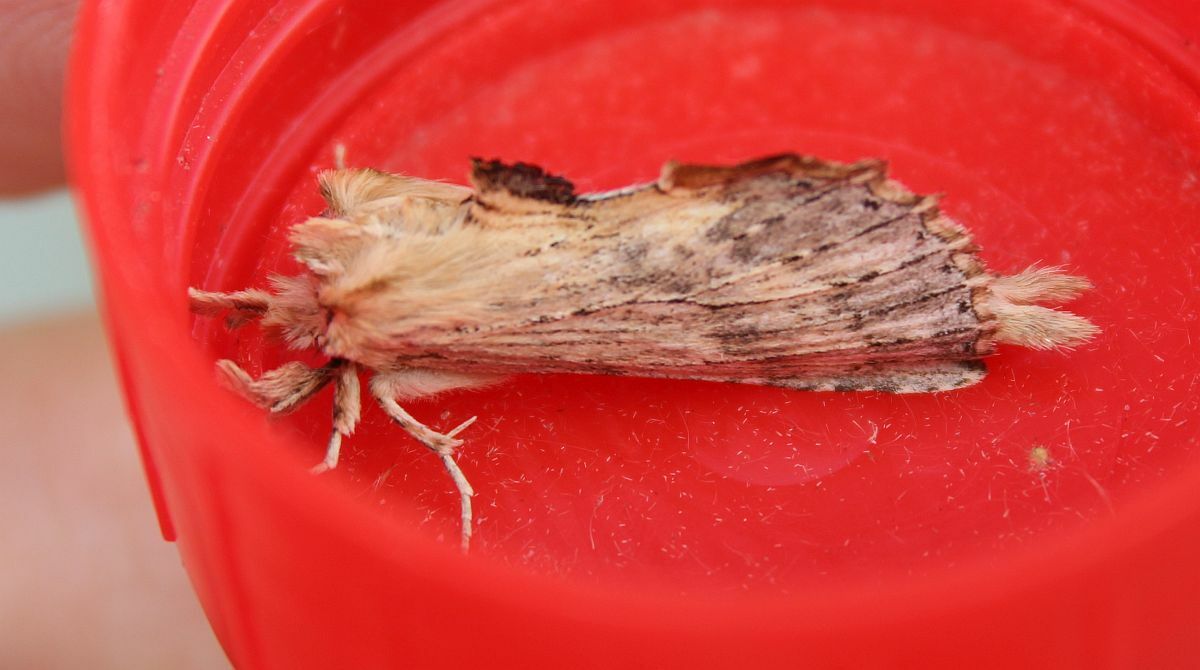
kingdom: Animalia
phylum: Arthropoda
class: Insecta
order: Lepidoptera
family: Notodontidae
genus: Pterostoma
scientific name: Pterostoma palpina
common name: Pale prominent
